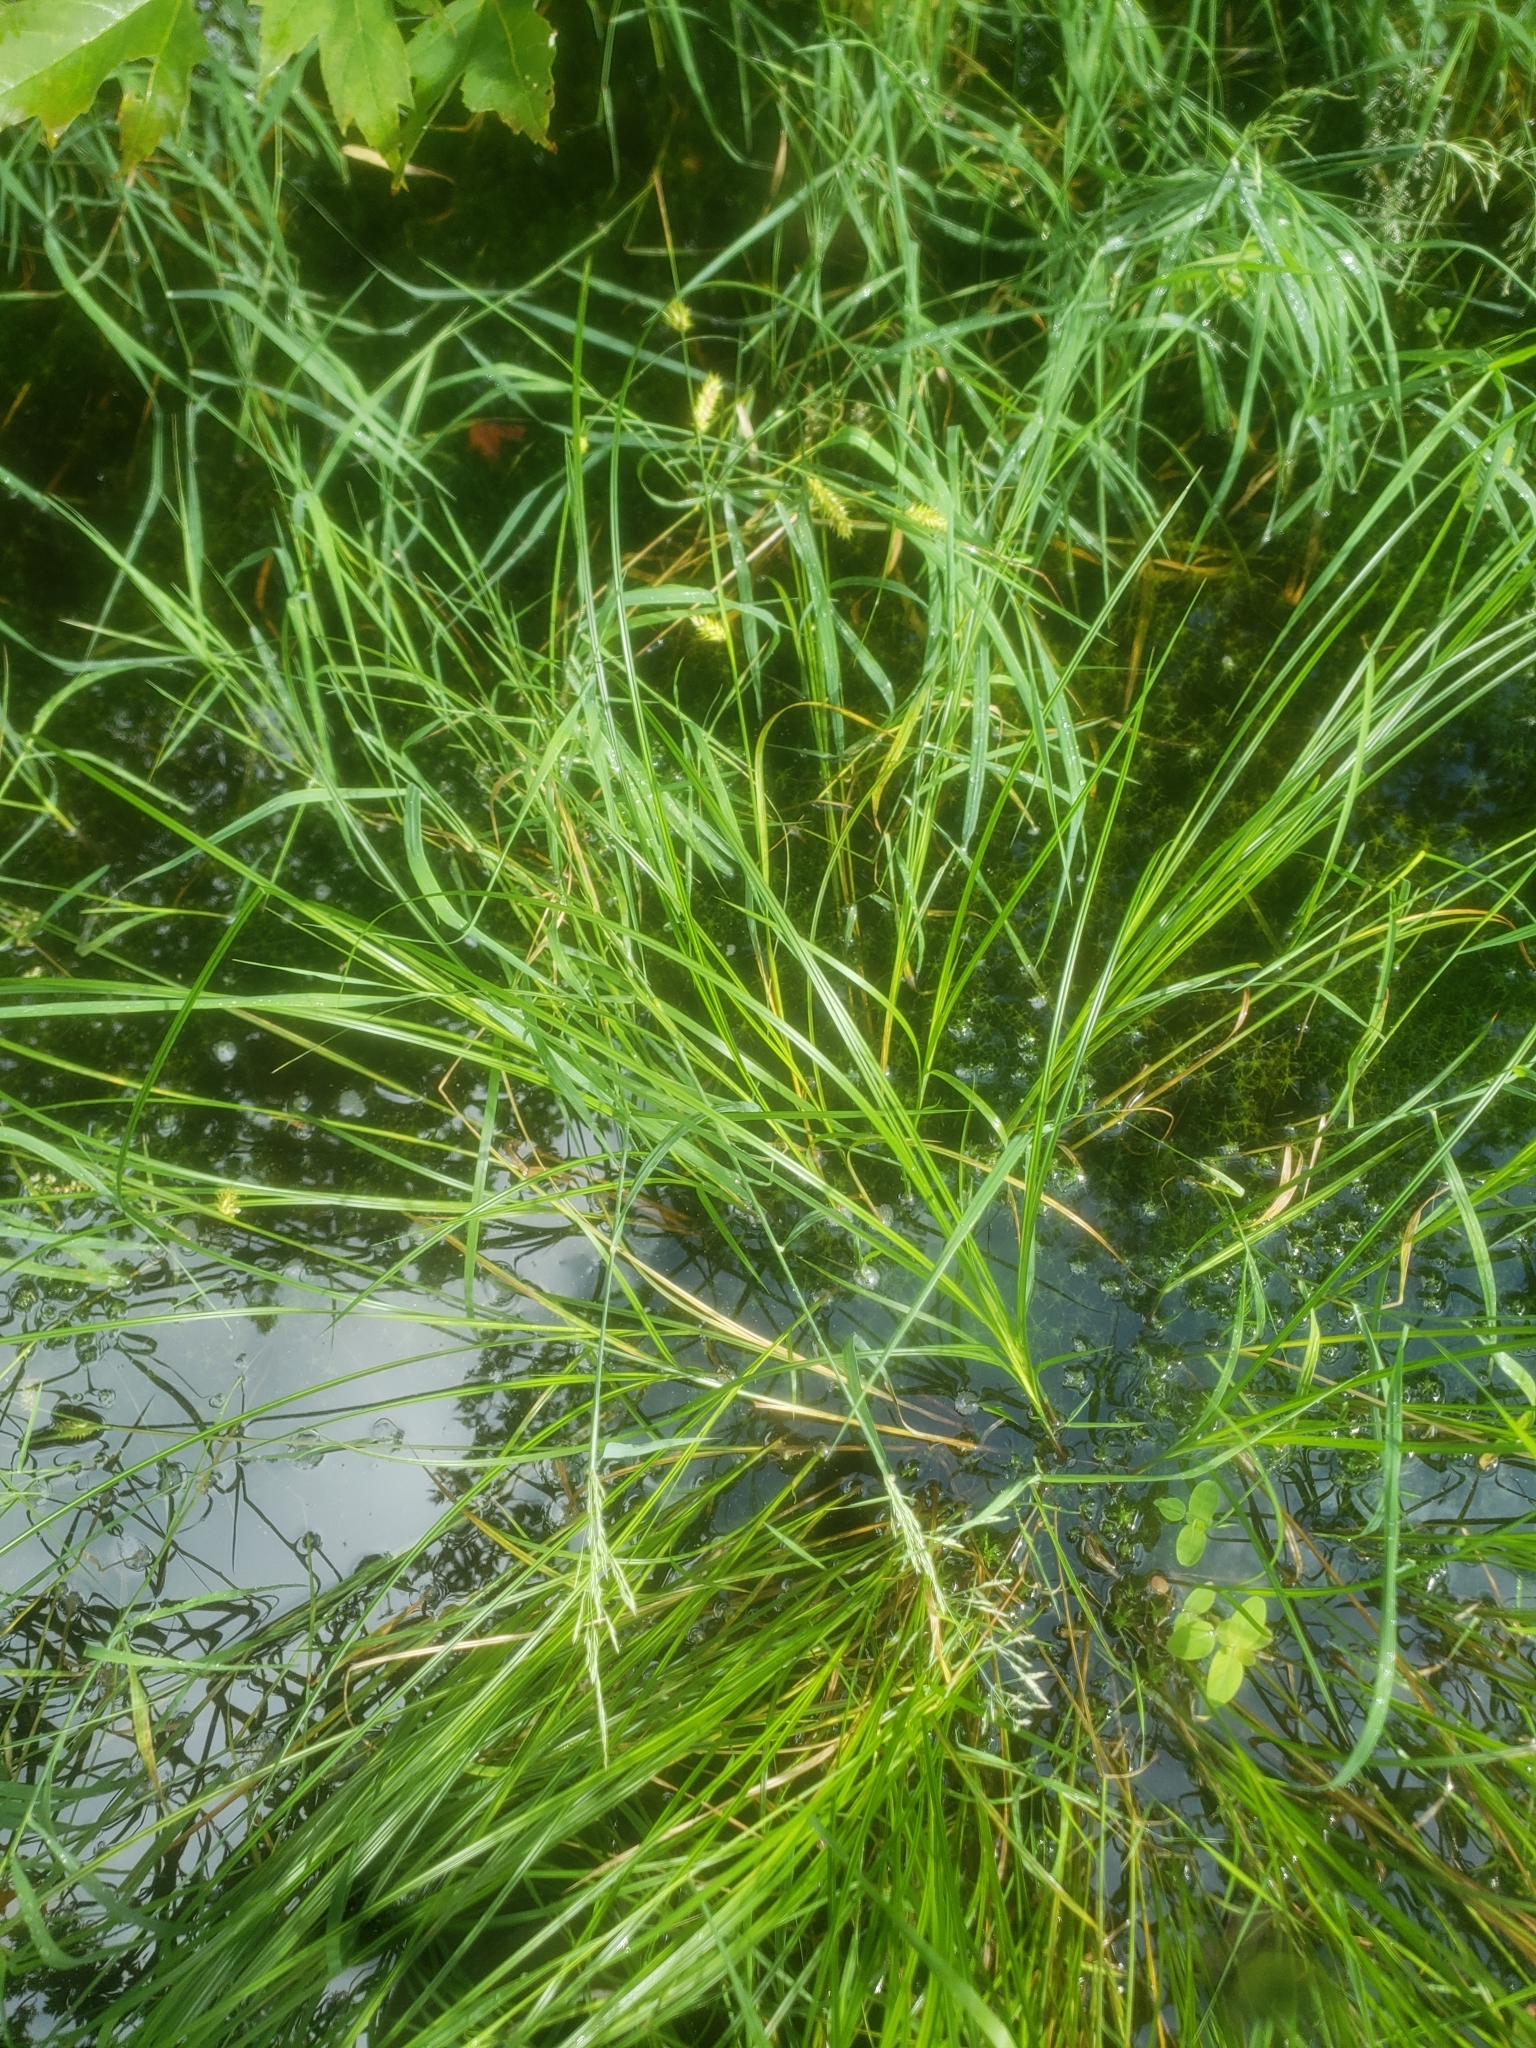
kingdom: Plantae
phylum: Tracheophyta
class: Liliopsida
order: Poales
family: Cyperaceae
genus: Carex
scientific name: Carex vesicaria
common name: Bladder-sedge
